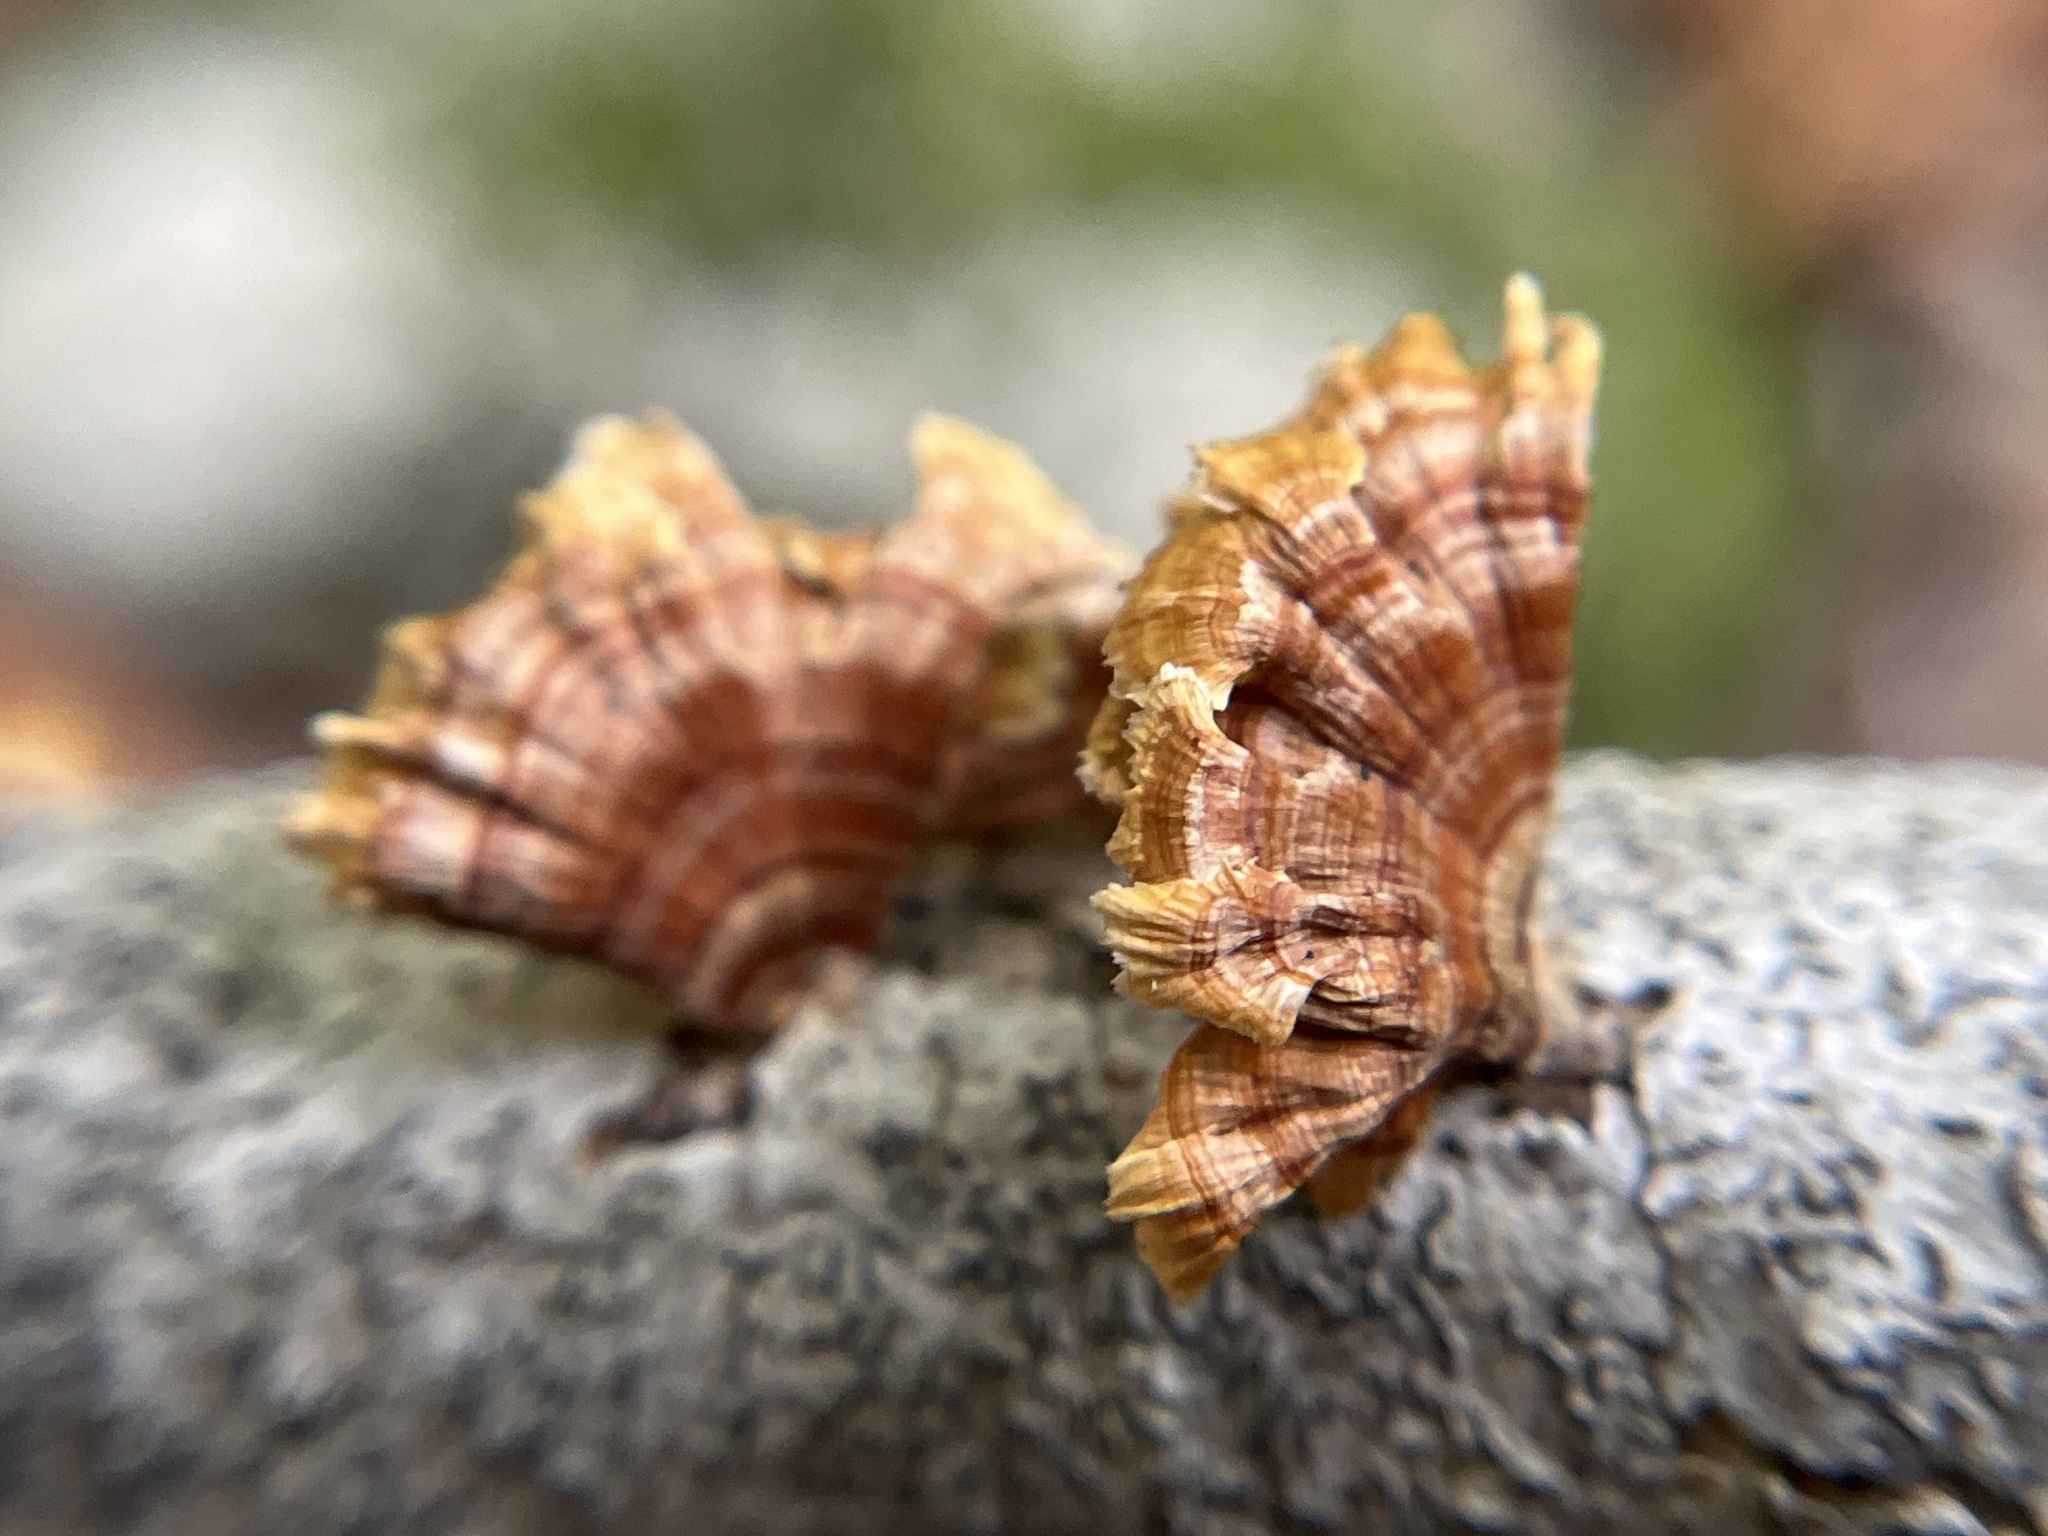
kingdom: Fungi
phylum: Basidiomycota
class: Agaricomycetes
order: Russulales
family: Stereaceae
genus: Stereum
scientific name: Stereum complicatum
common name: Crowded parchment
